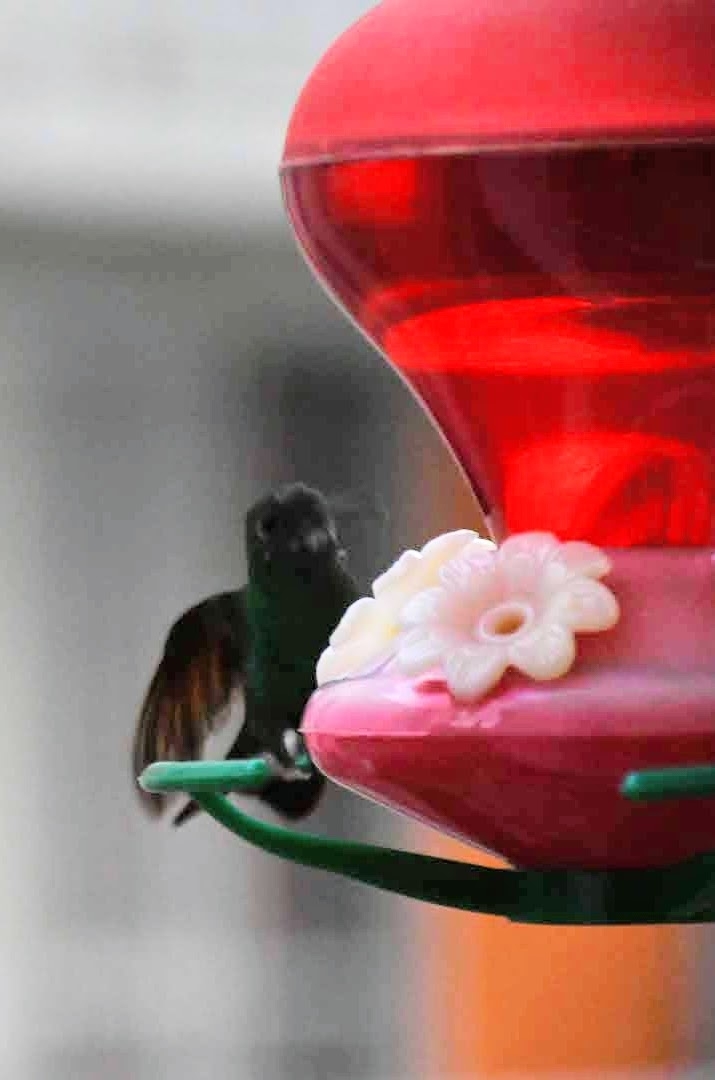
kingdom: Animalia
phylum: Chordata
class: Aves
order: Apodiformes
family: Trochilidae
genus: Saucerottia
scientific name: Saucerottia beryllina
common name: Berylline hummingbird
